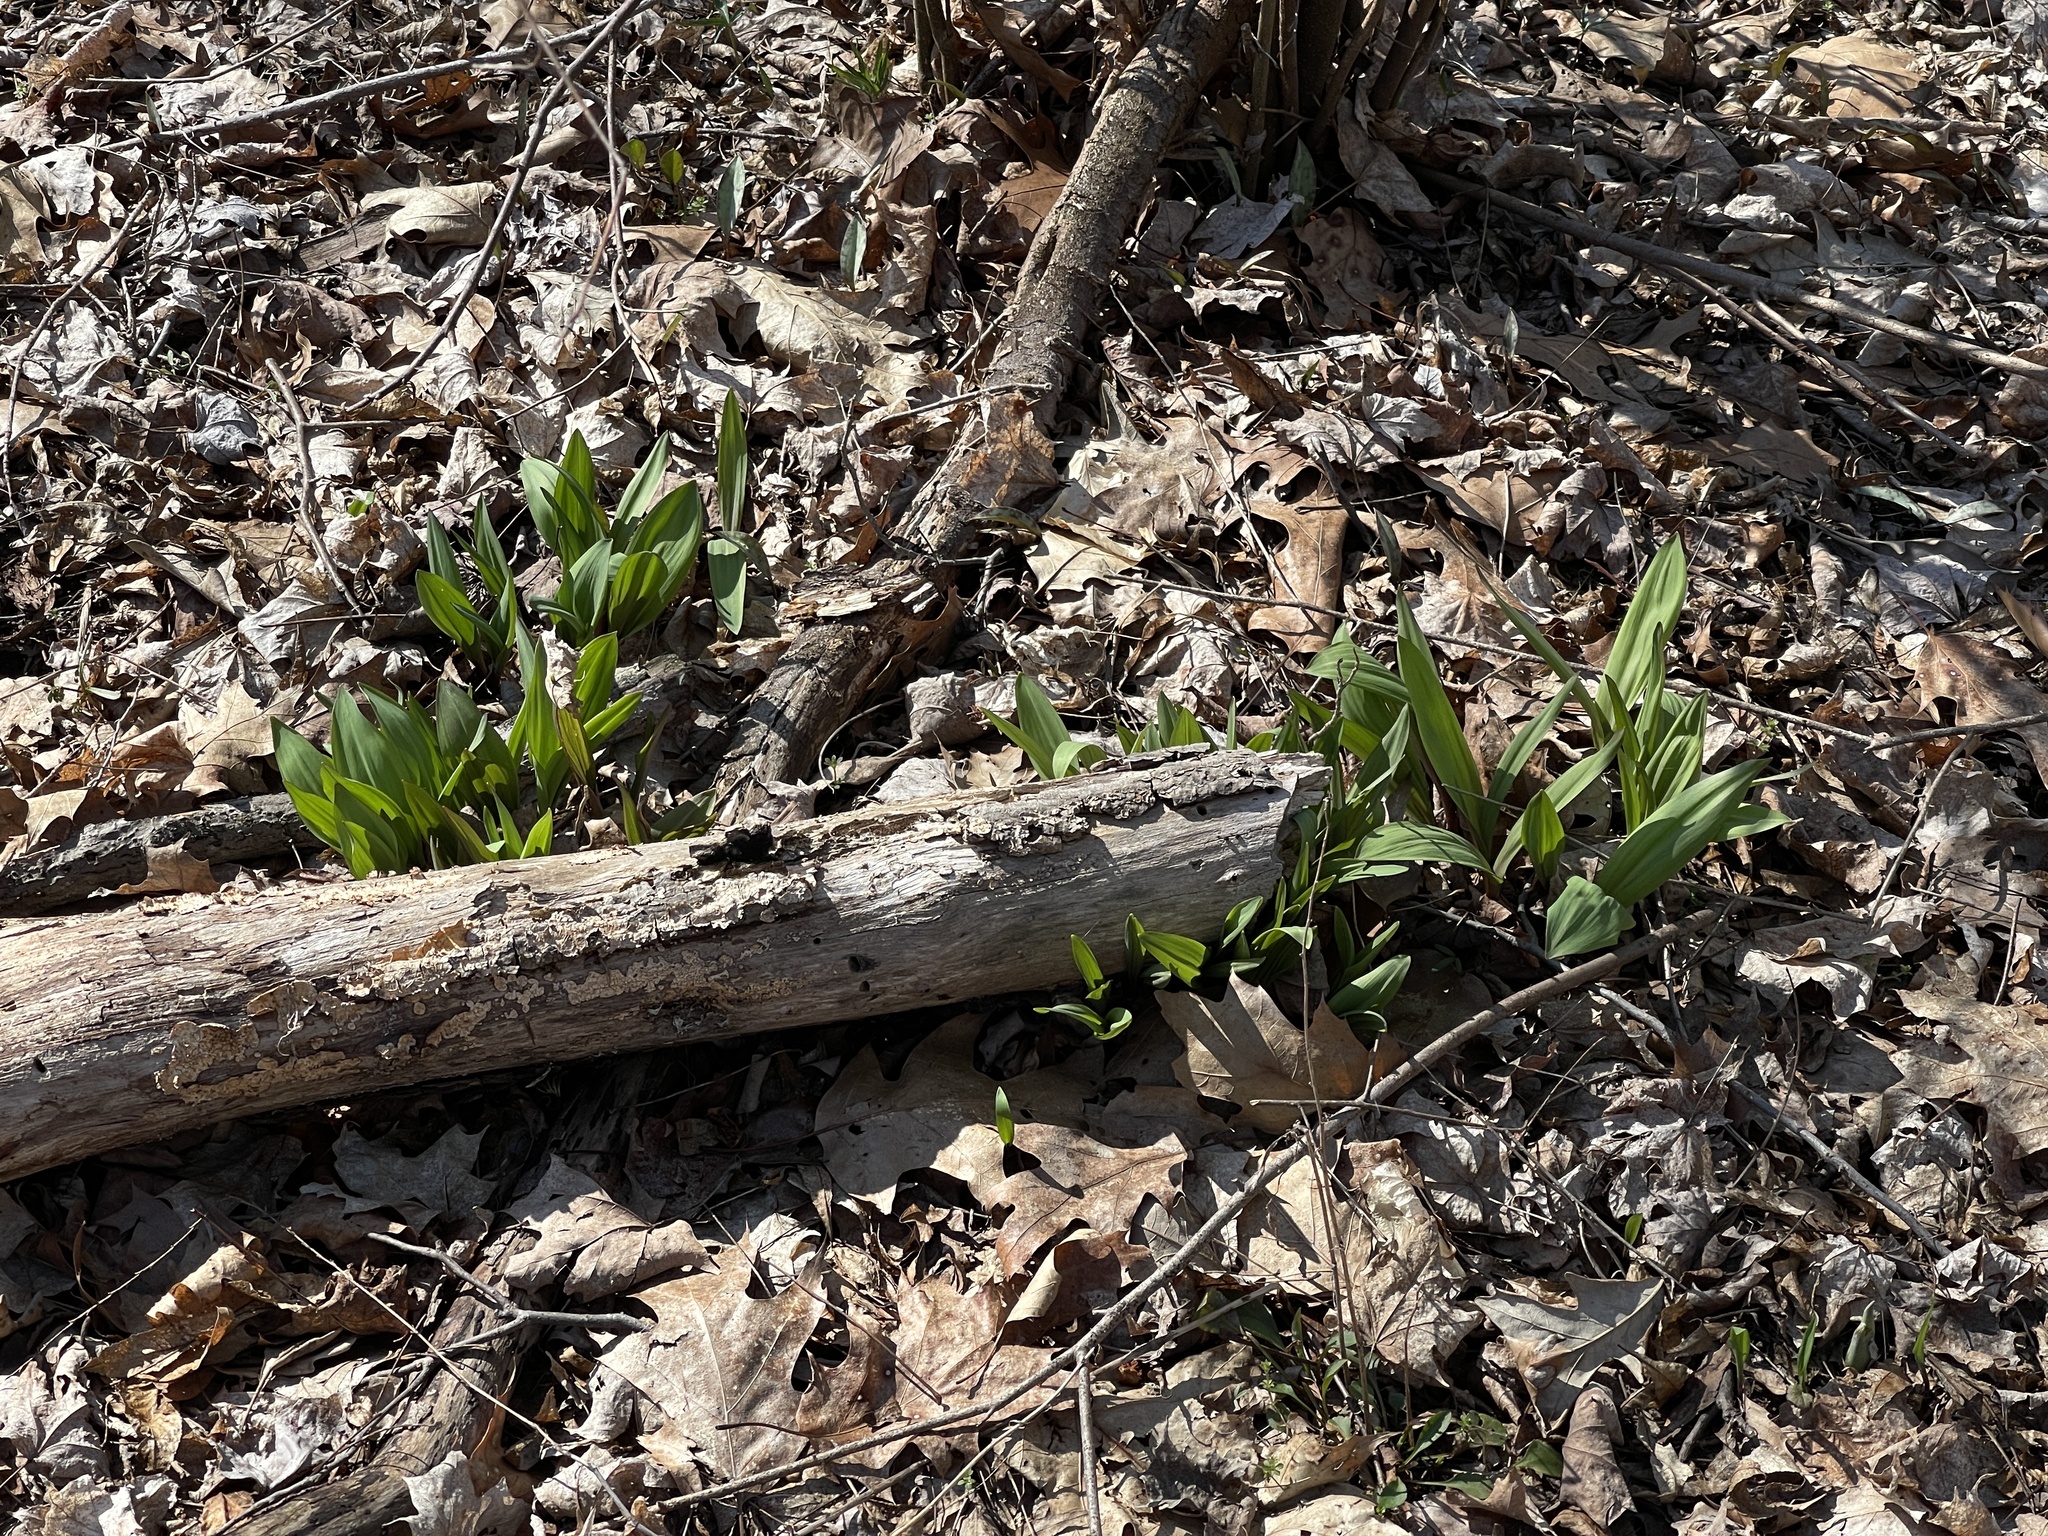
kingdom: Plantae
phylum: Tracheophyta
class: Liliopsida
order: Asparagales
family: Amaryllidaceae
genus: Allium
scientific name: Allium tricoccum
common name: Ramp
